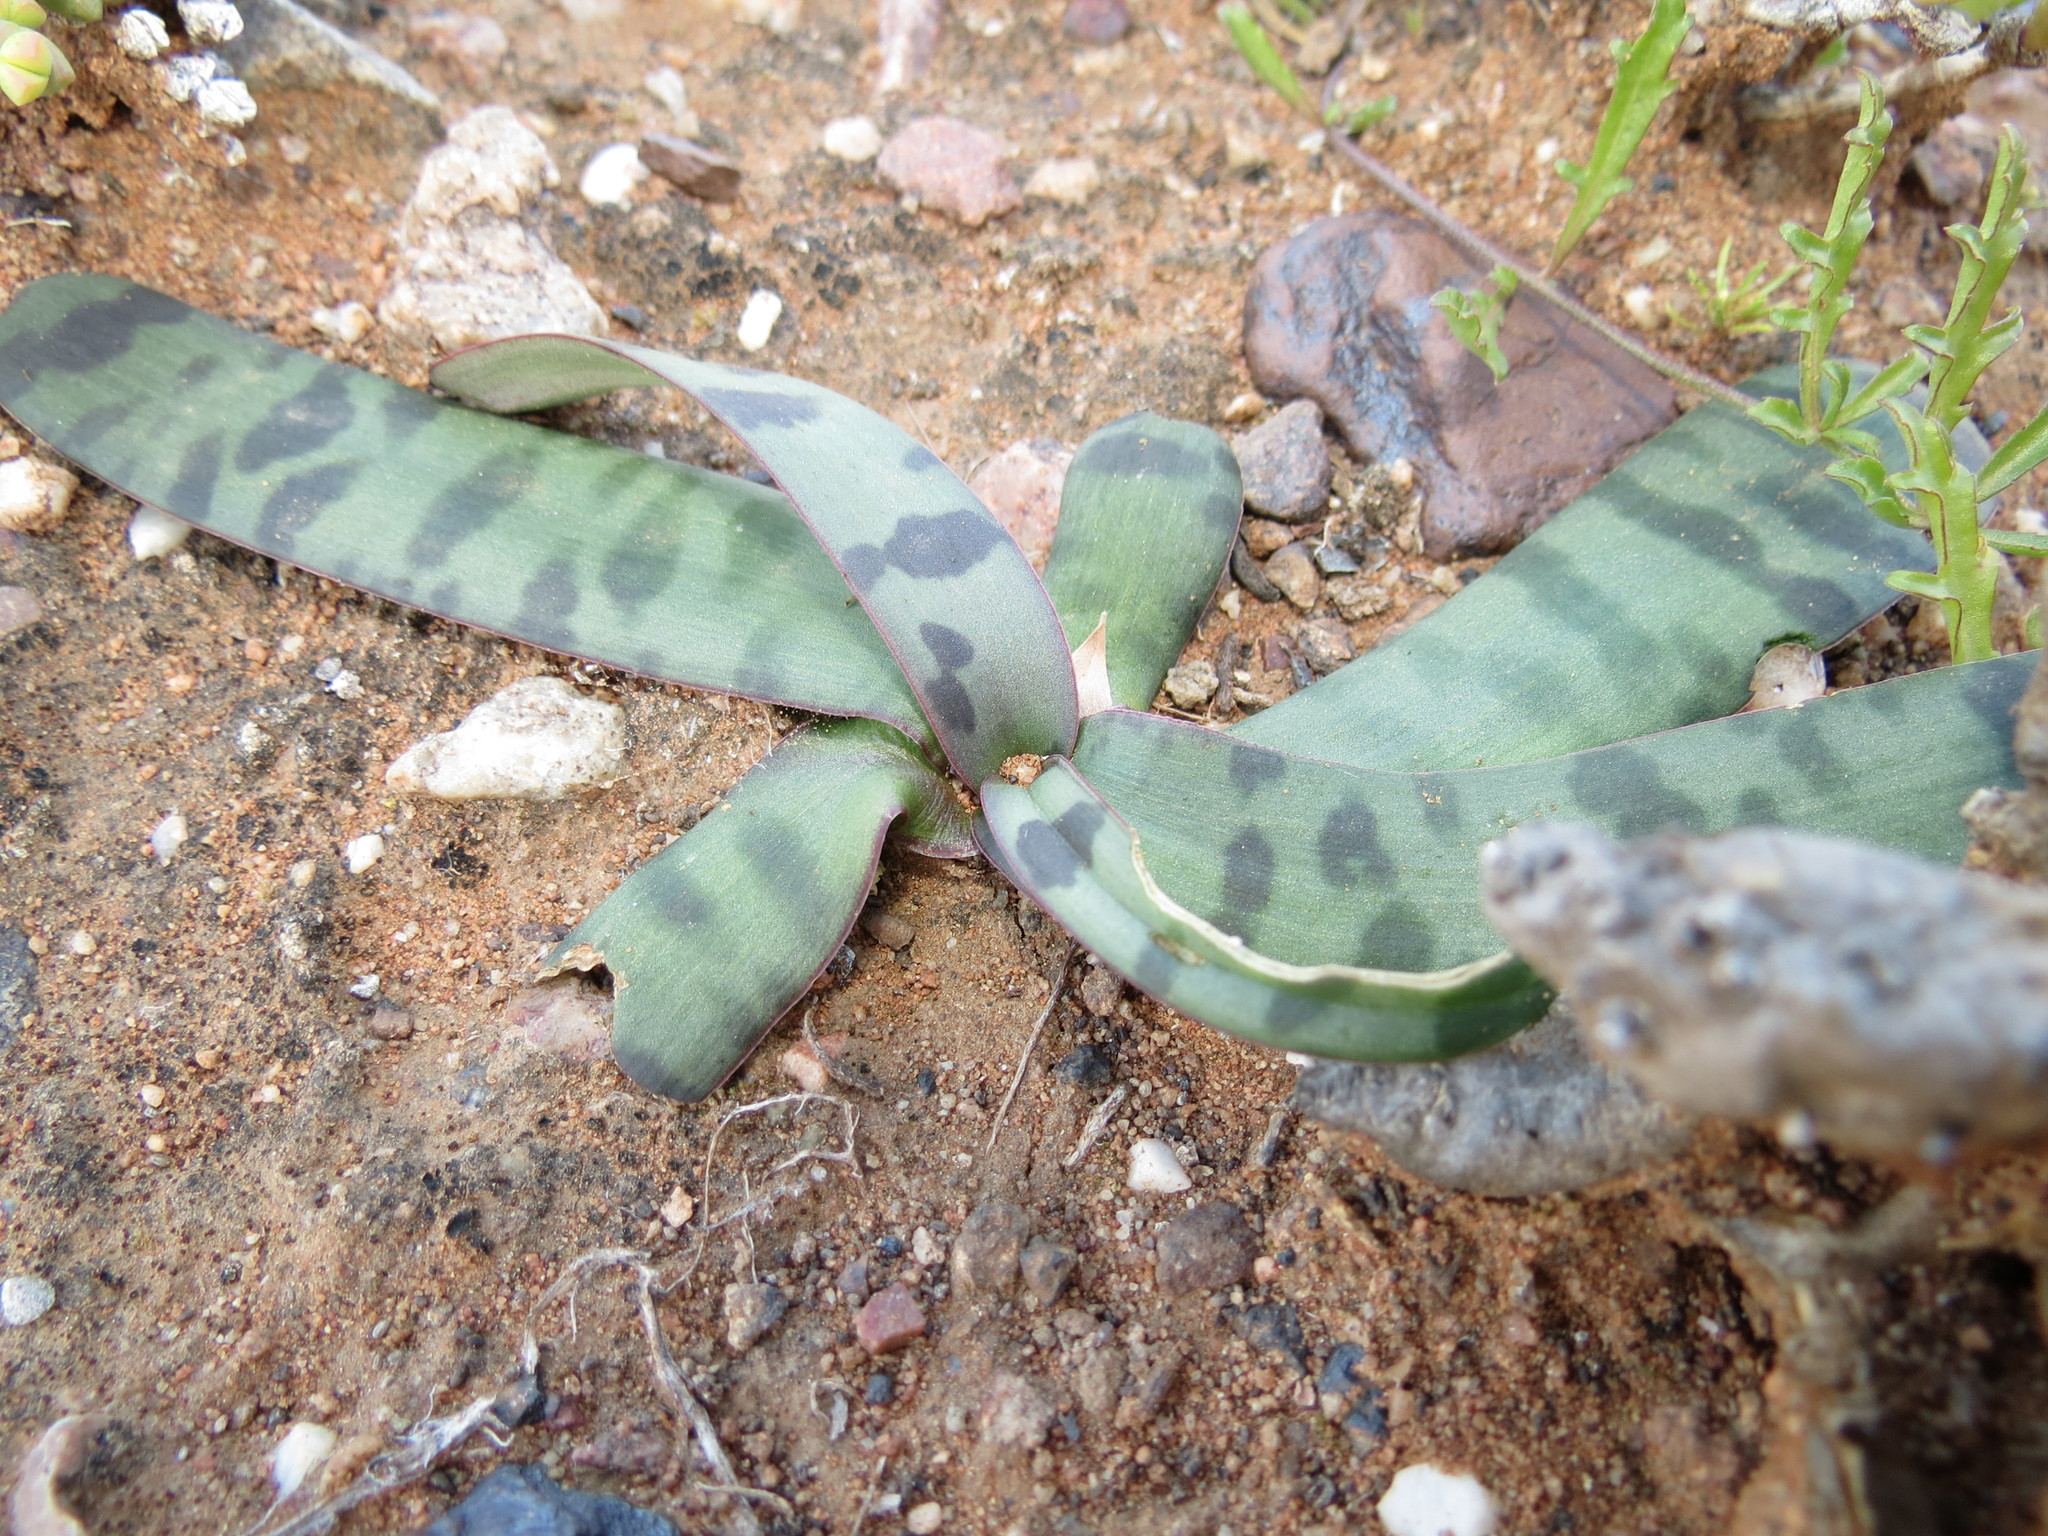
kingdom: Plantae
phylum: Tracheophyta
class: Liliopsida
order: Asparagales
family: Asparagaceae
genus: Ledebouria
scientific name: Ledebouria apertiflora
